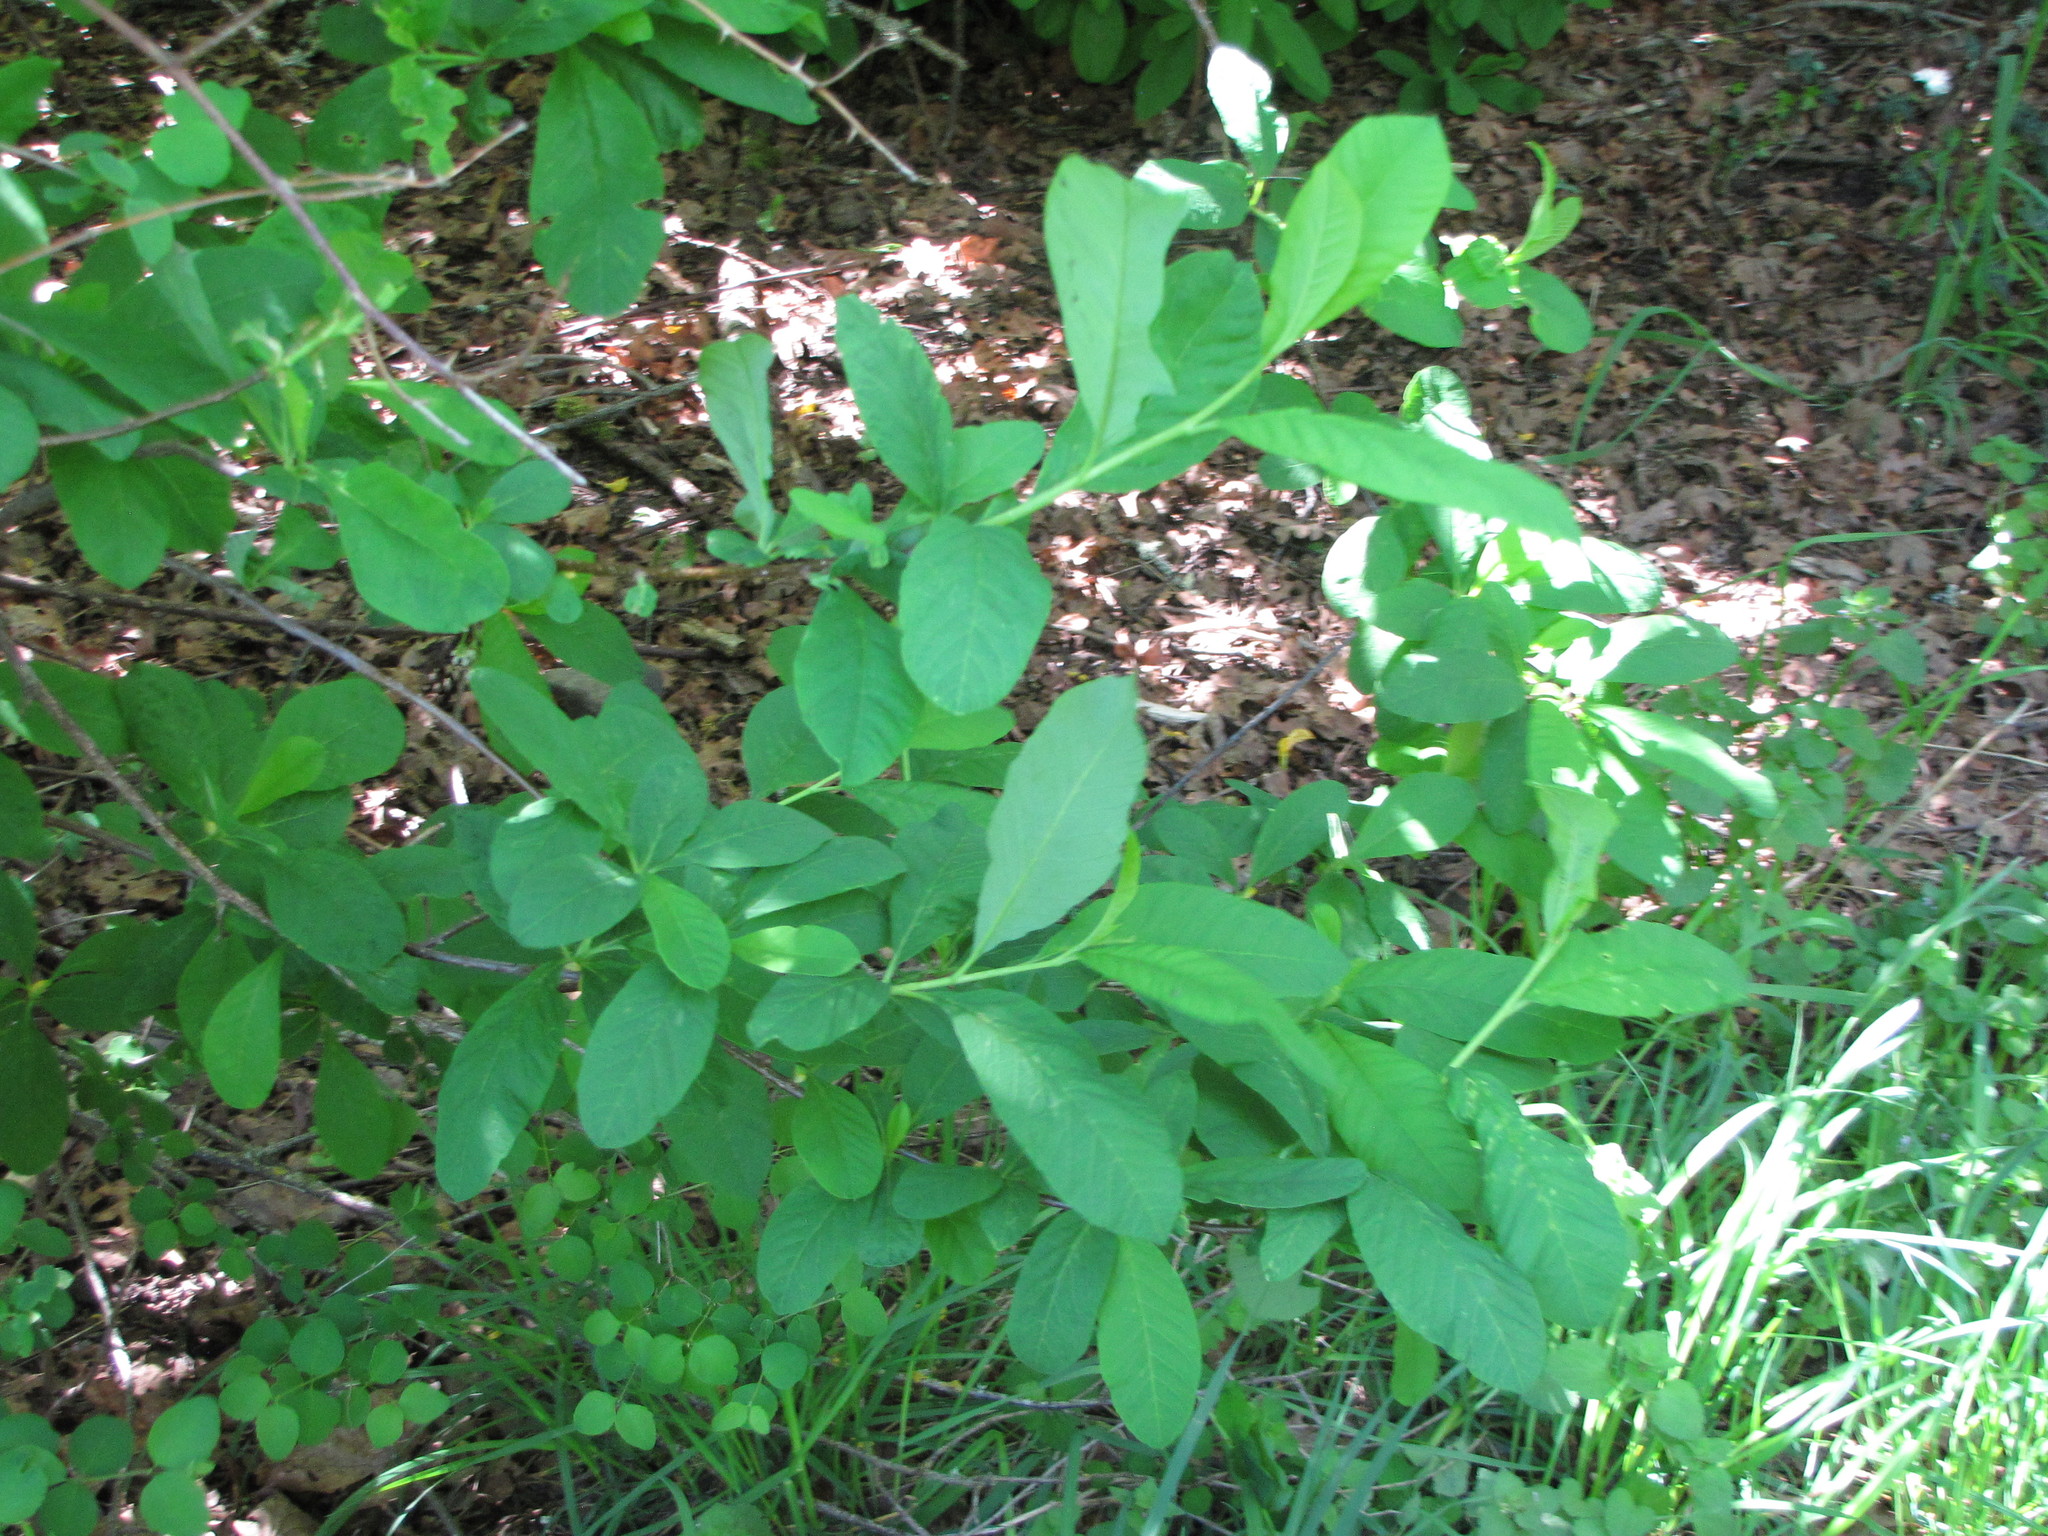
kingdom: Plantae
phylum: Tracheophyta
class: Magnoliopsida
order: Rosales
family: Rosaceae
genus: Oemleria
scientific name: Oemleria cerasiformis
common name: Osoberry
